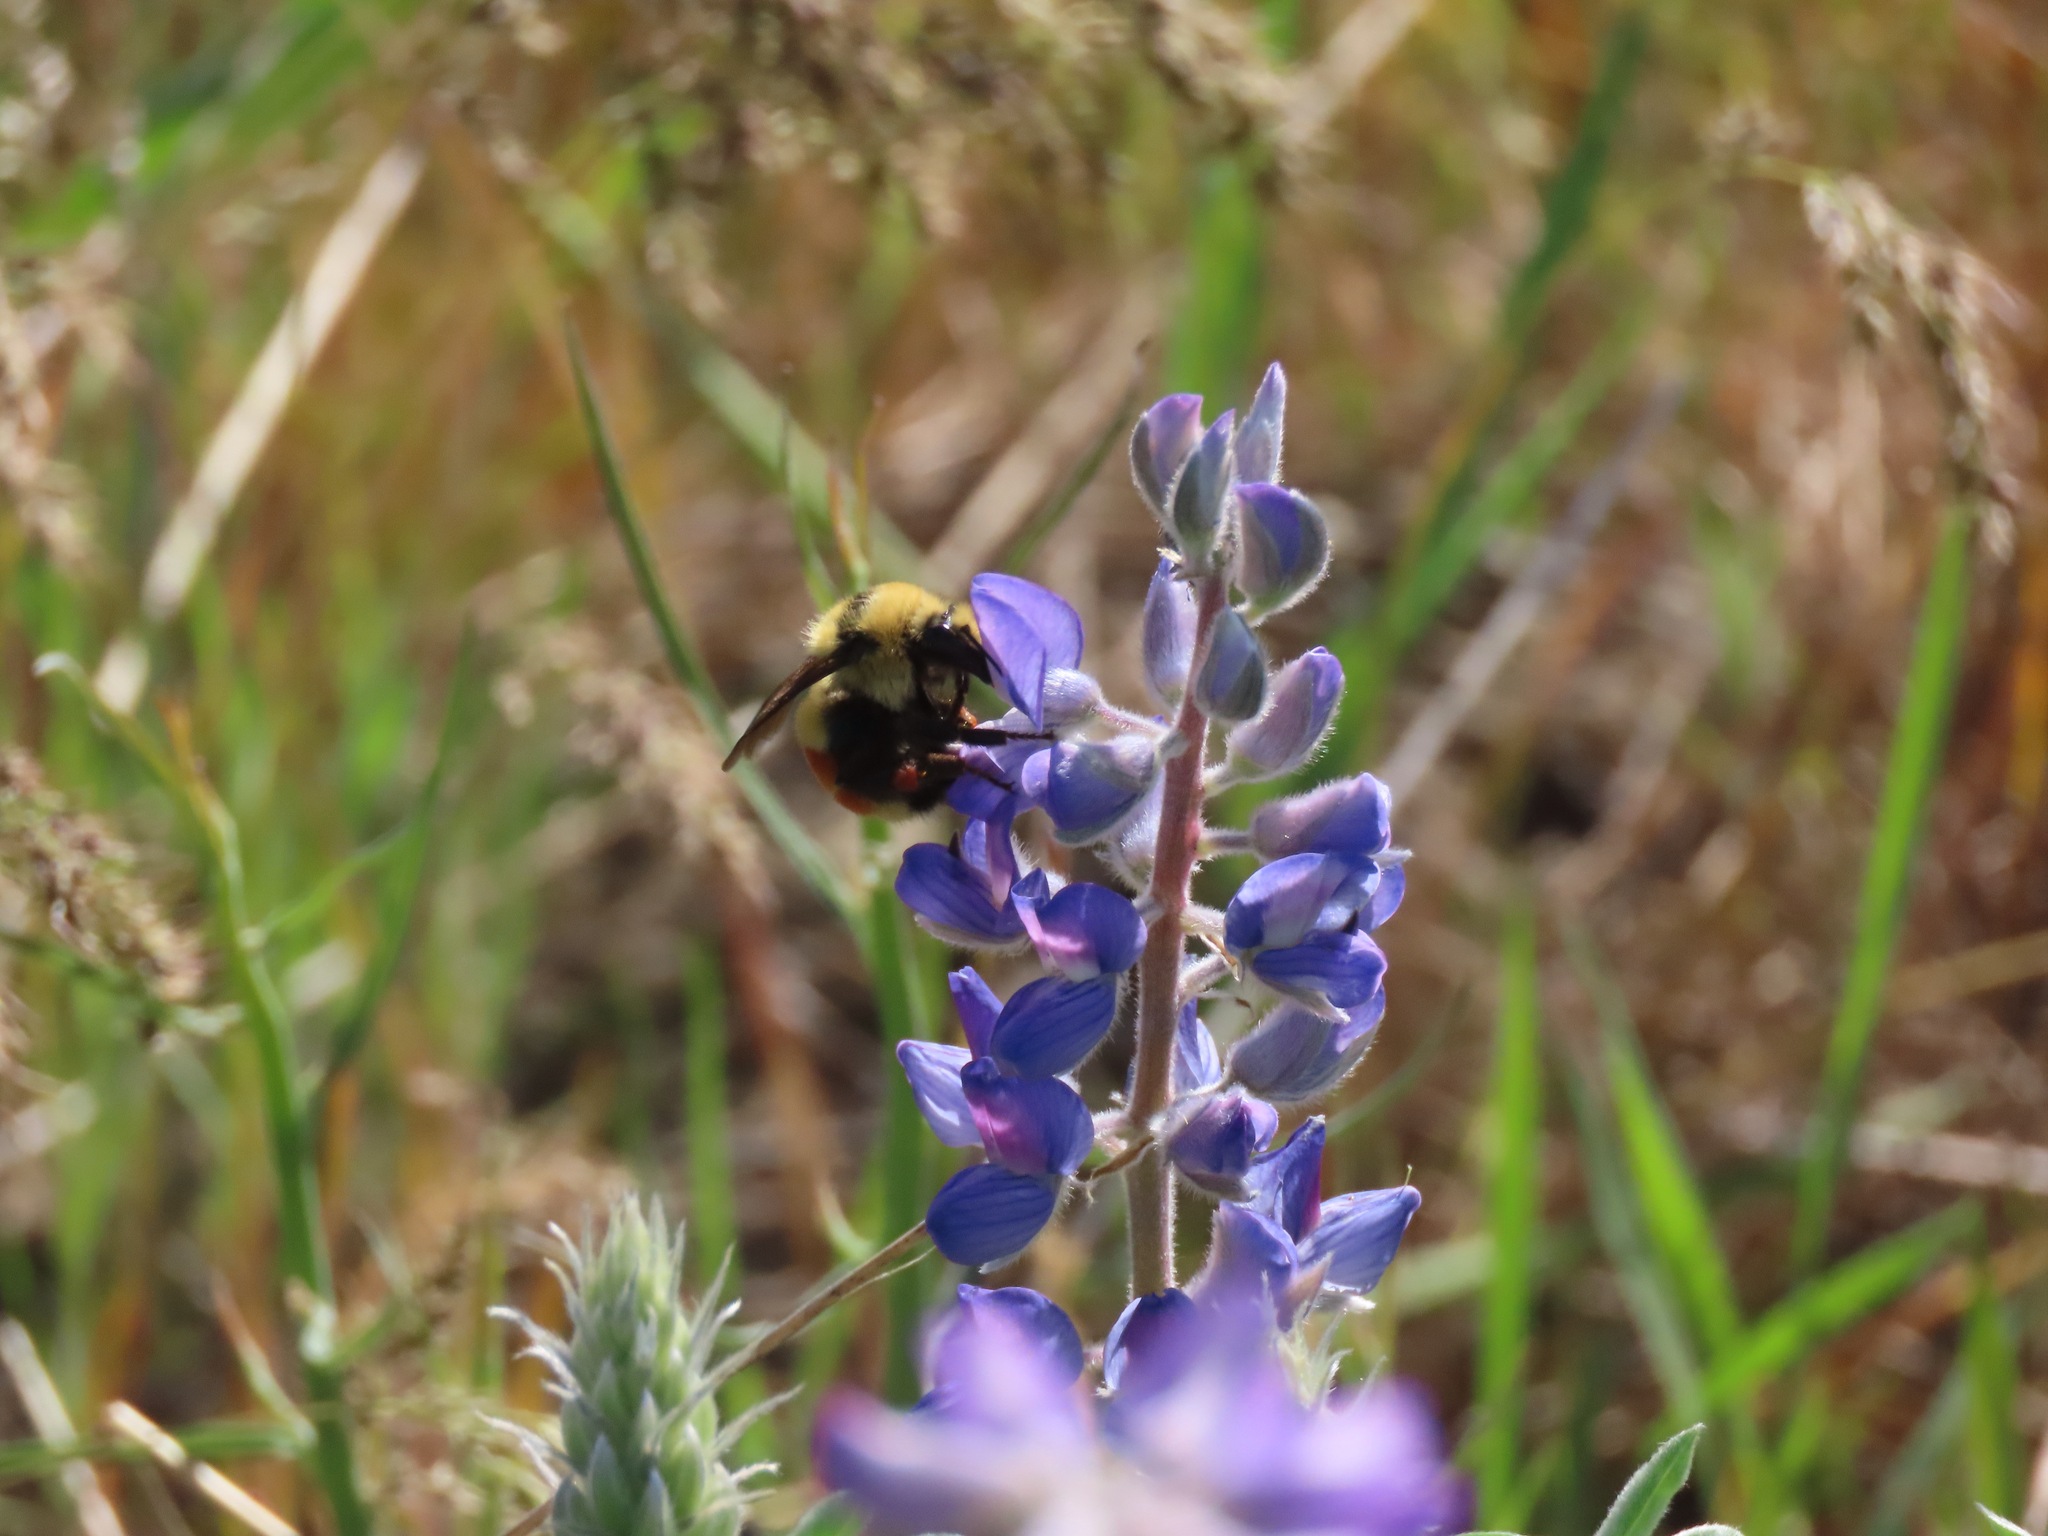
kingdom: Animalia
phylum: Arthropoda
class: Insecta
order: Hymenoptera
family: Apidae
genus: Bombus
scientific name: Bombus huntii
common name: Hunt bumble bee
